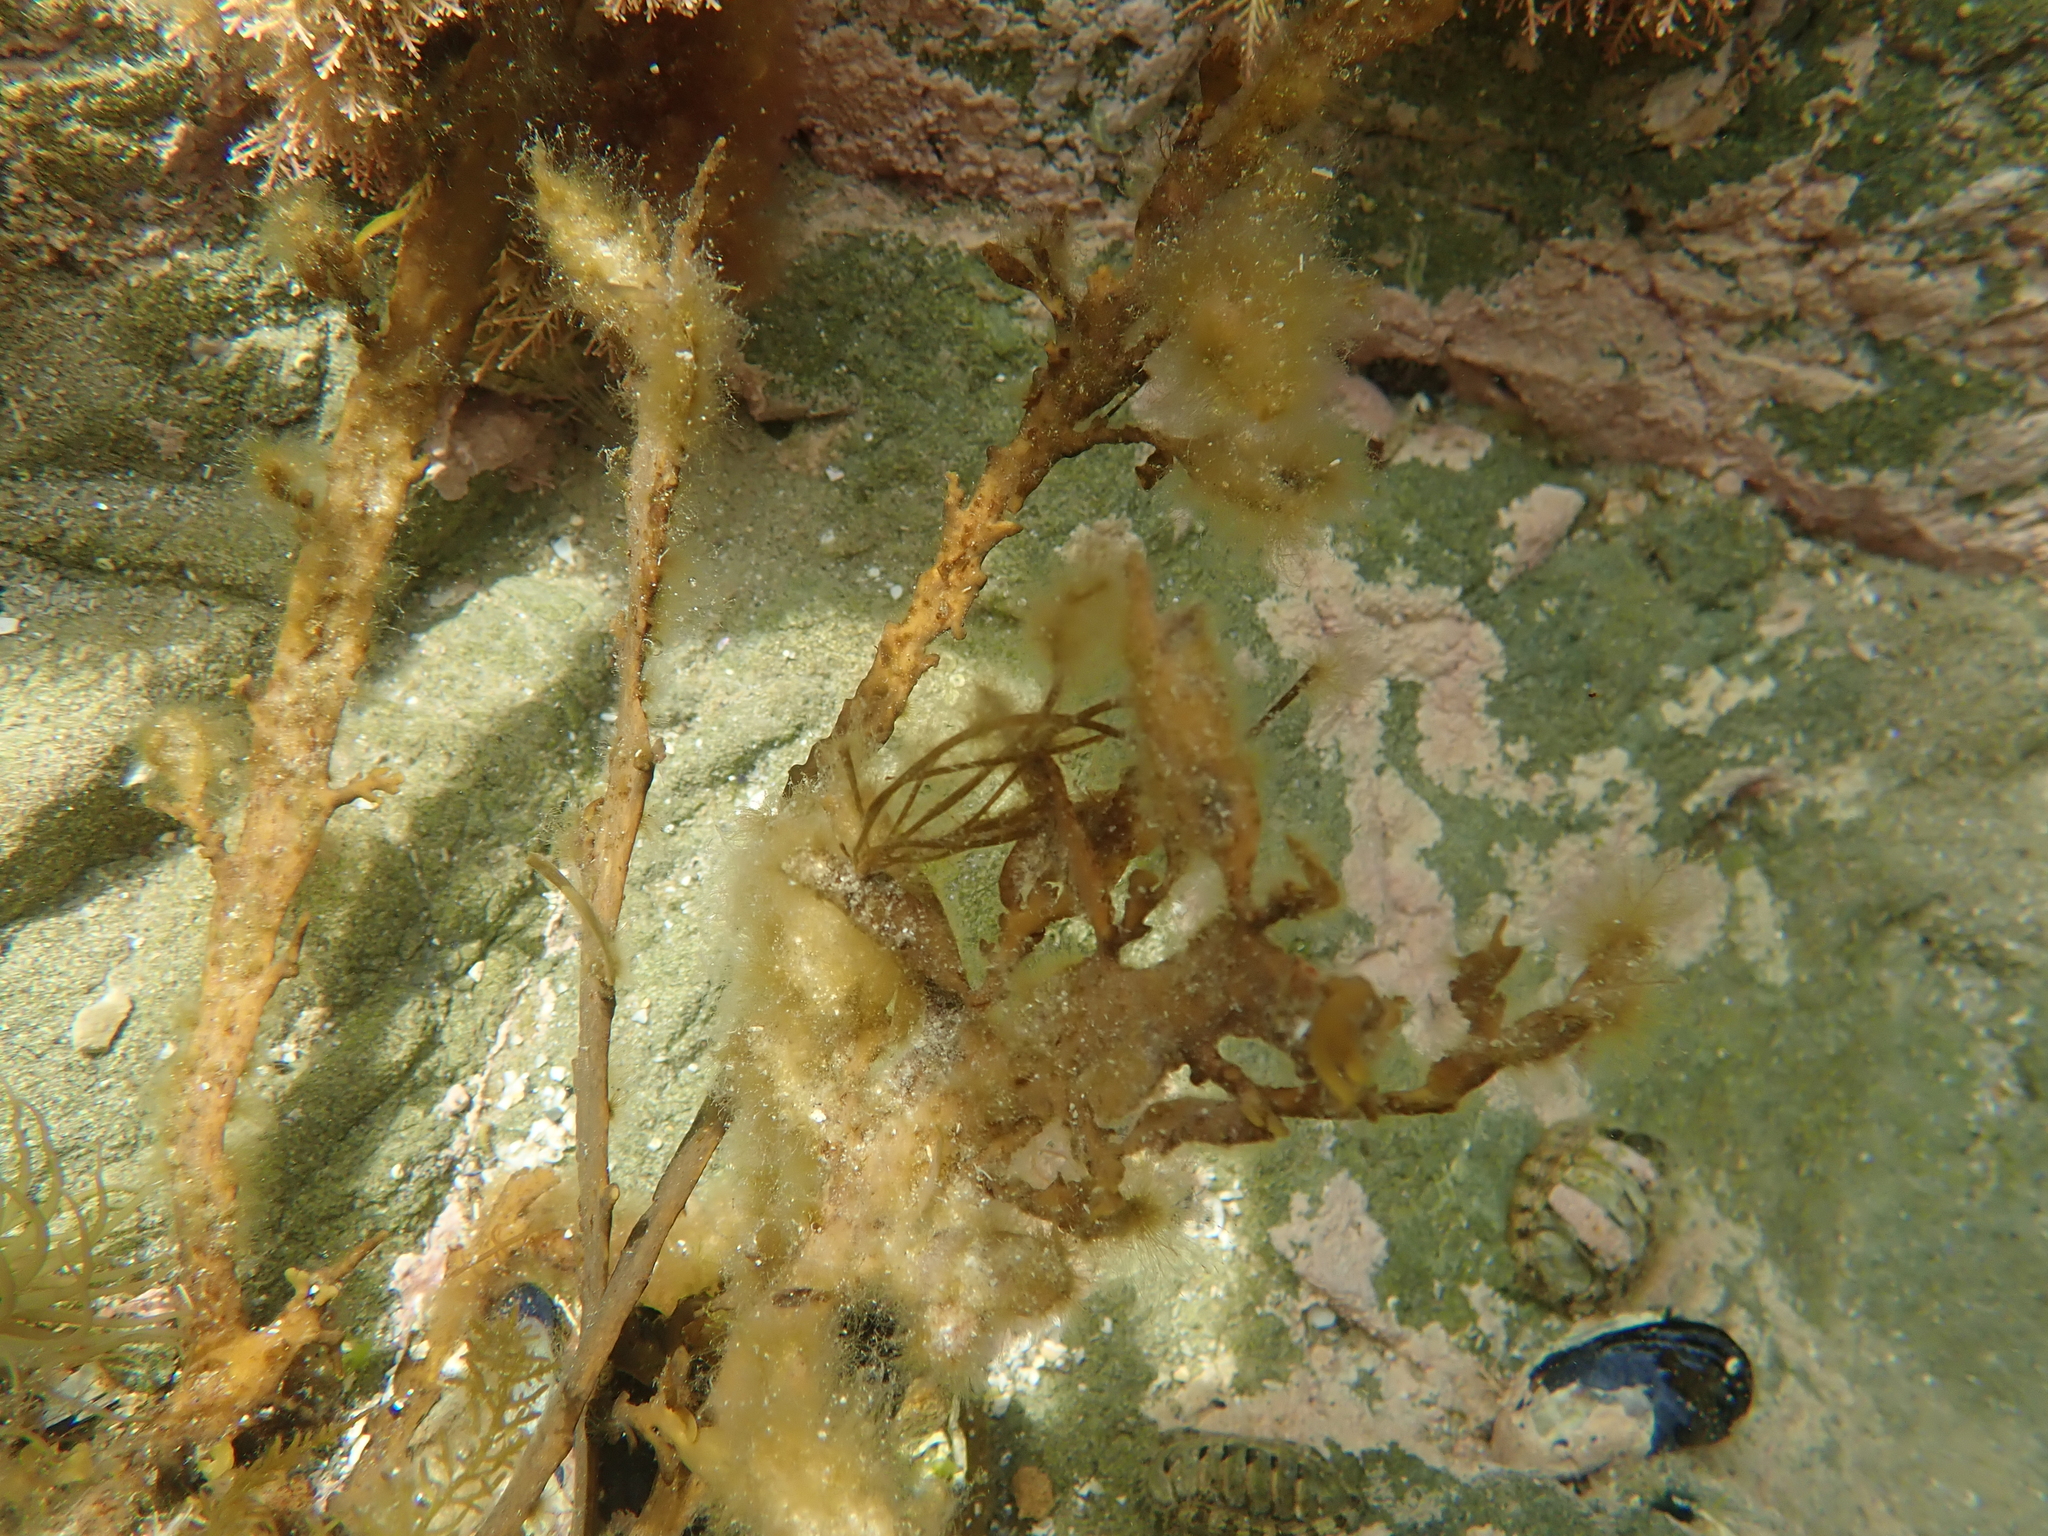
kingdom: Chromista
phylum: Ochrophyta
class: Phaeophyceae
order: Fucales
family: Sargassaceae
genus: Carpophyllum
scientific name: Carpophyllum maschalocarpum
